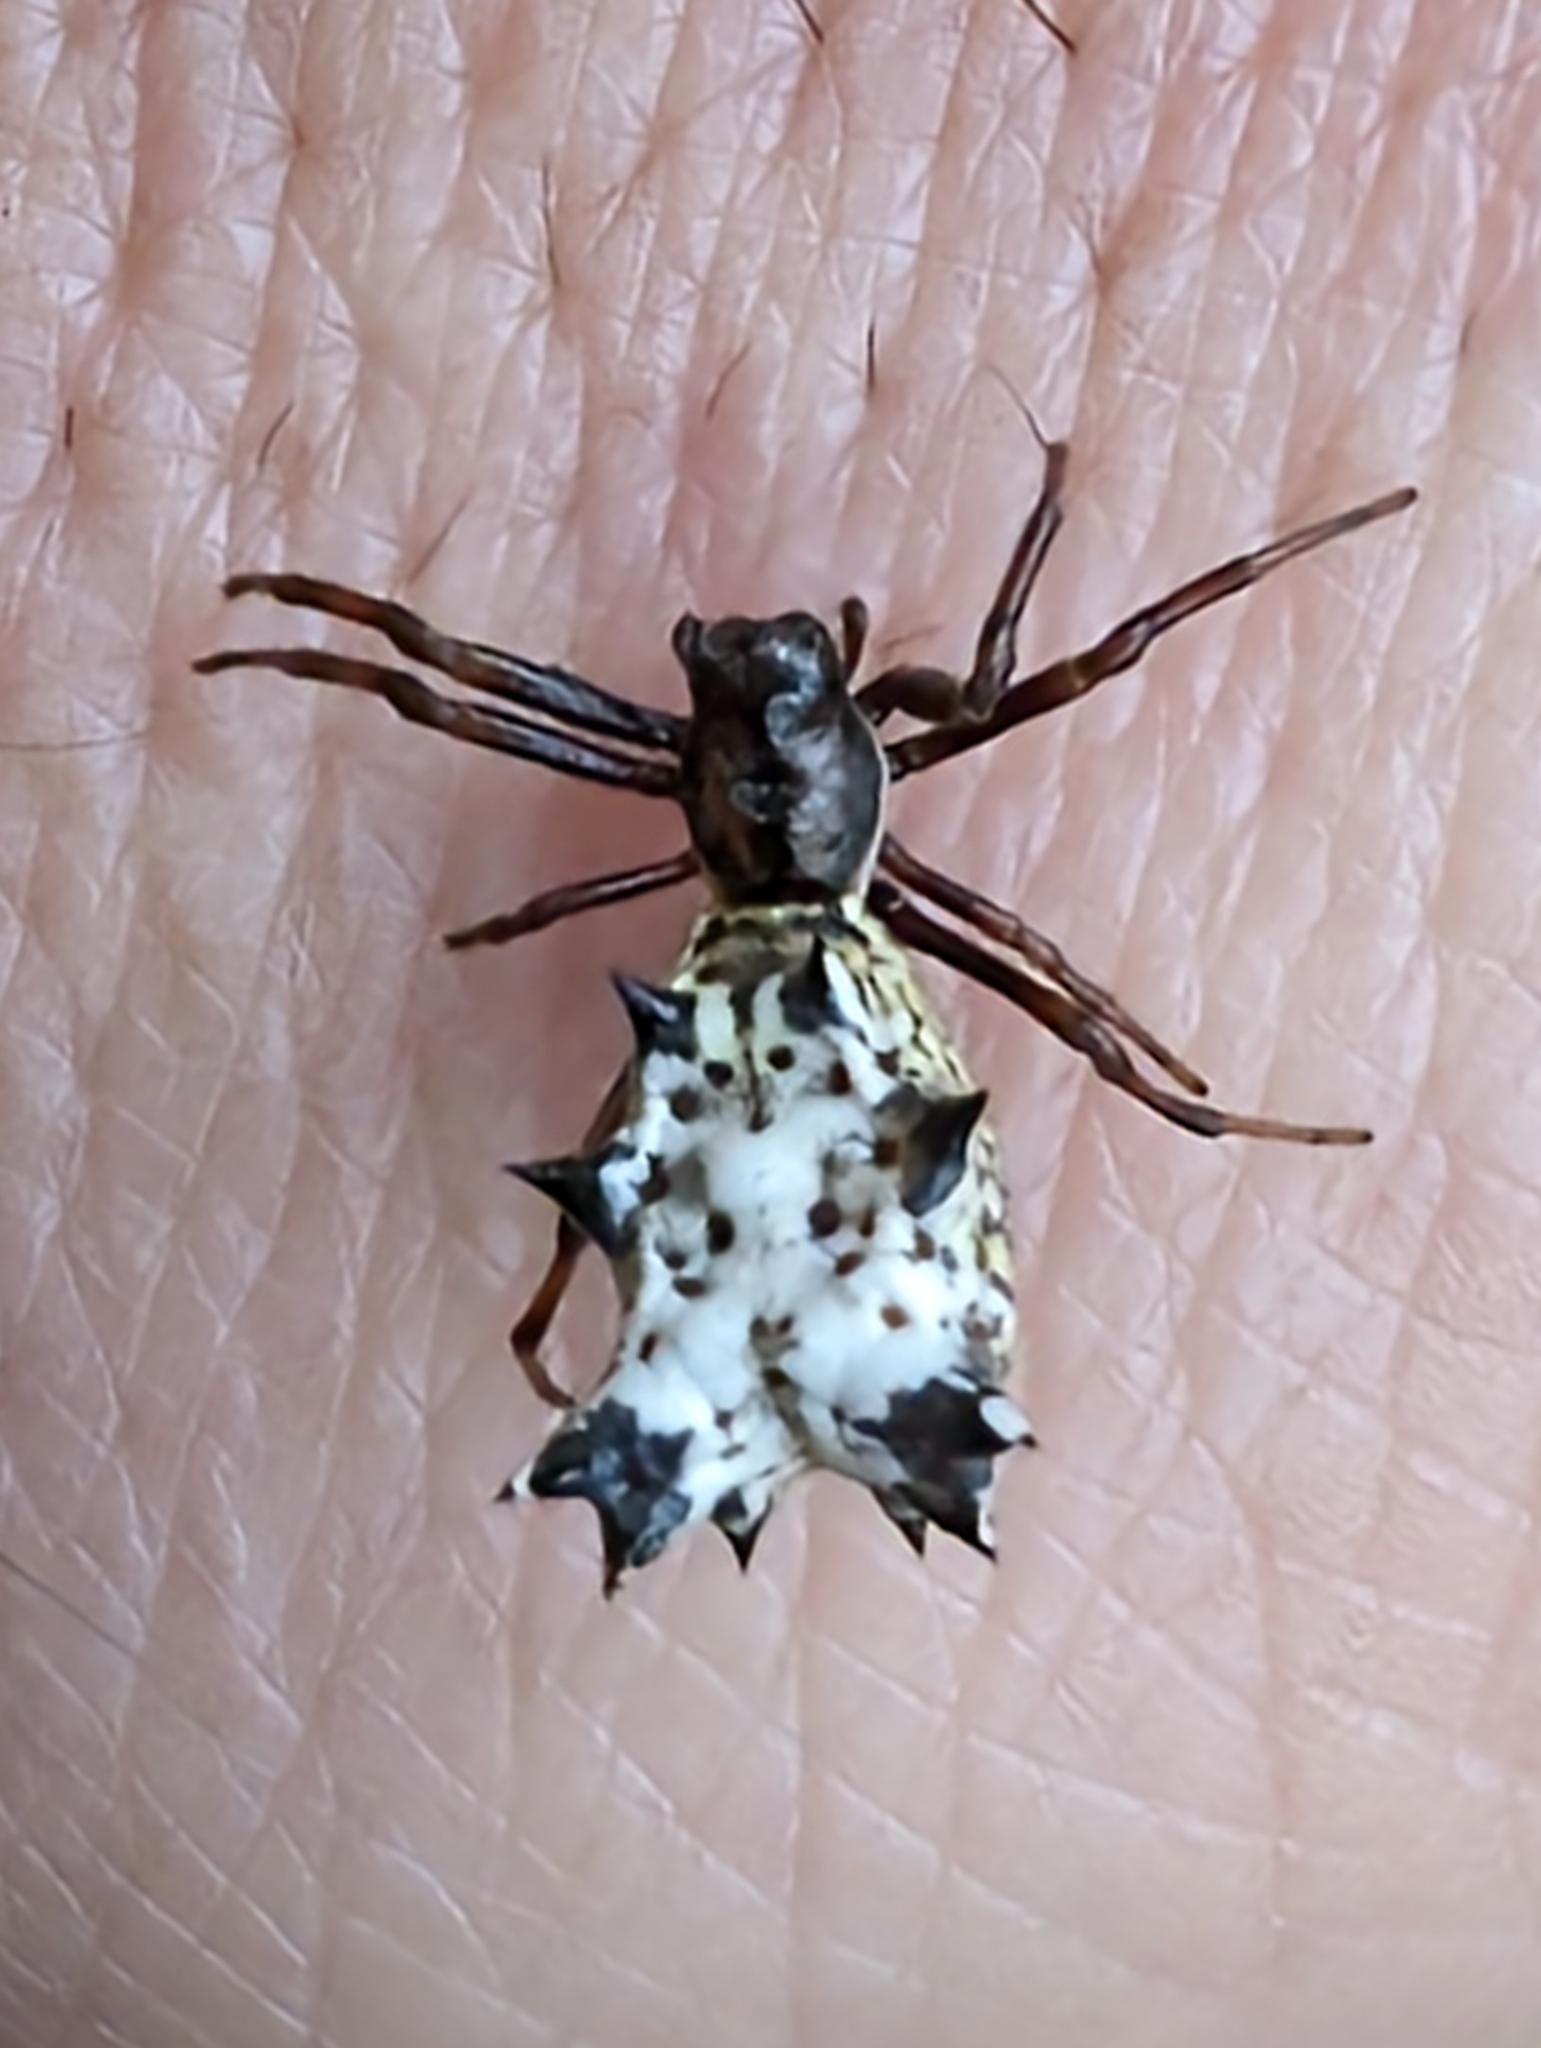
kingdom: Animalia
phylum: Arthropoda
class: Arachnida
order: Araneae
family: Araneidae
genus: Micrathena
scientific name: Micrathena gracilis
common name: Orb weavers
